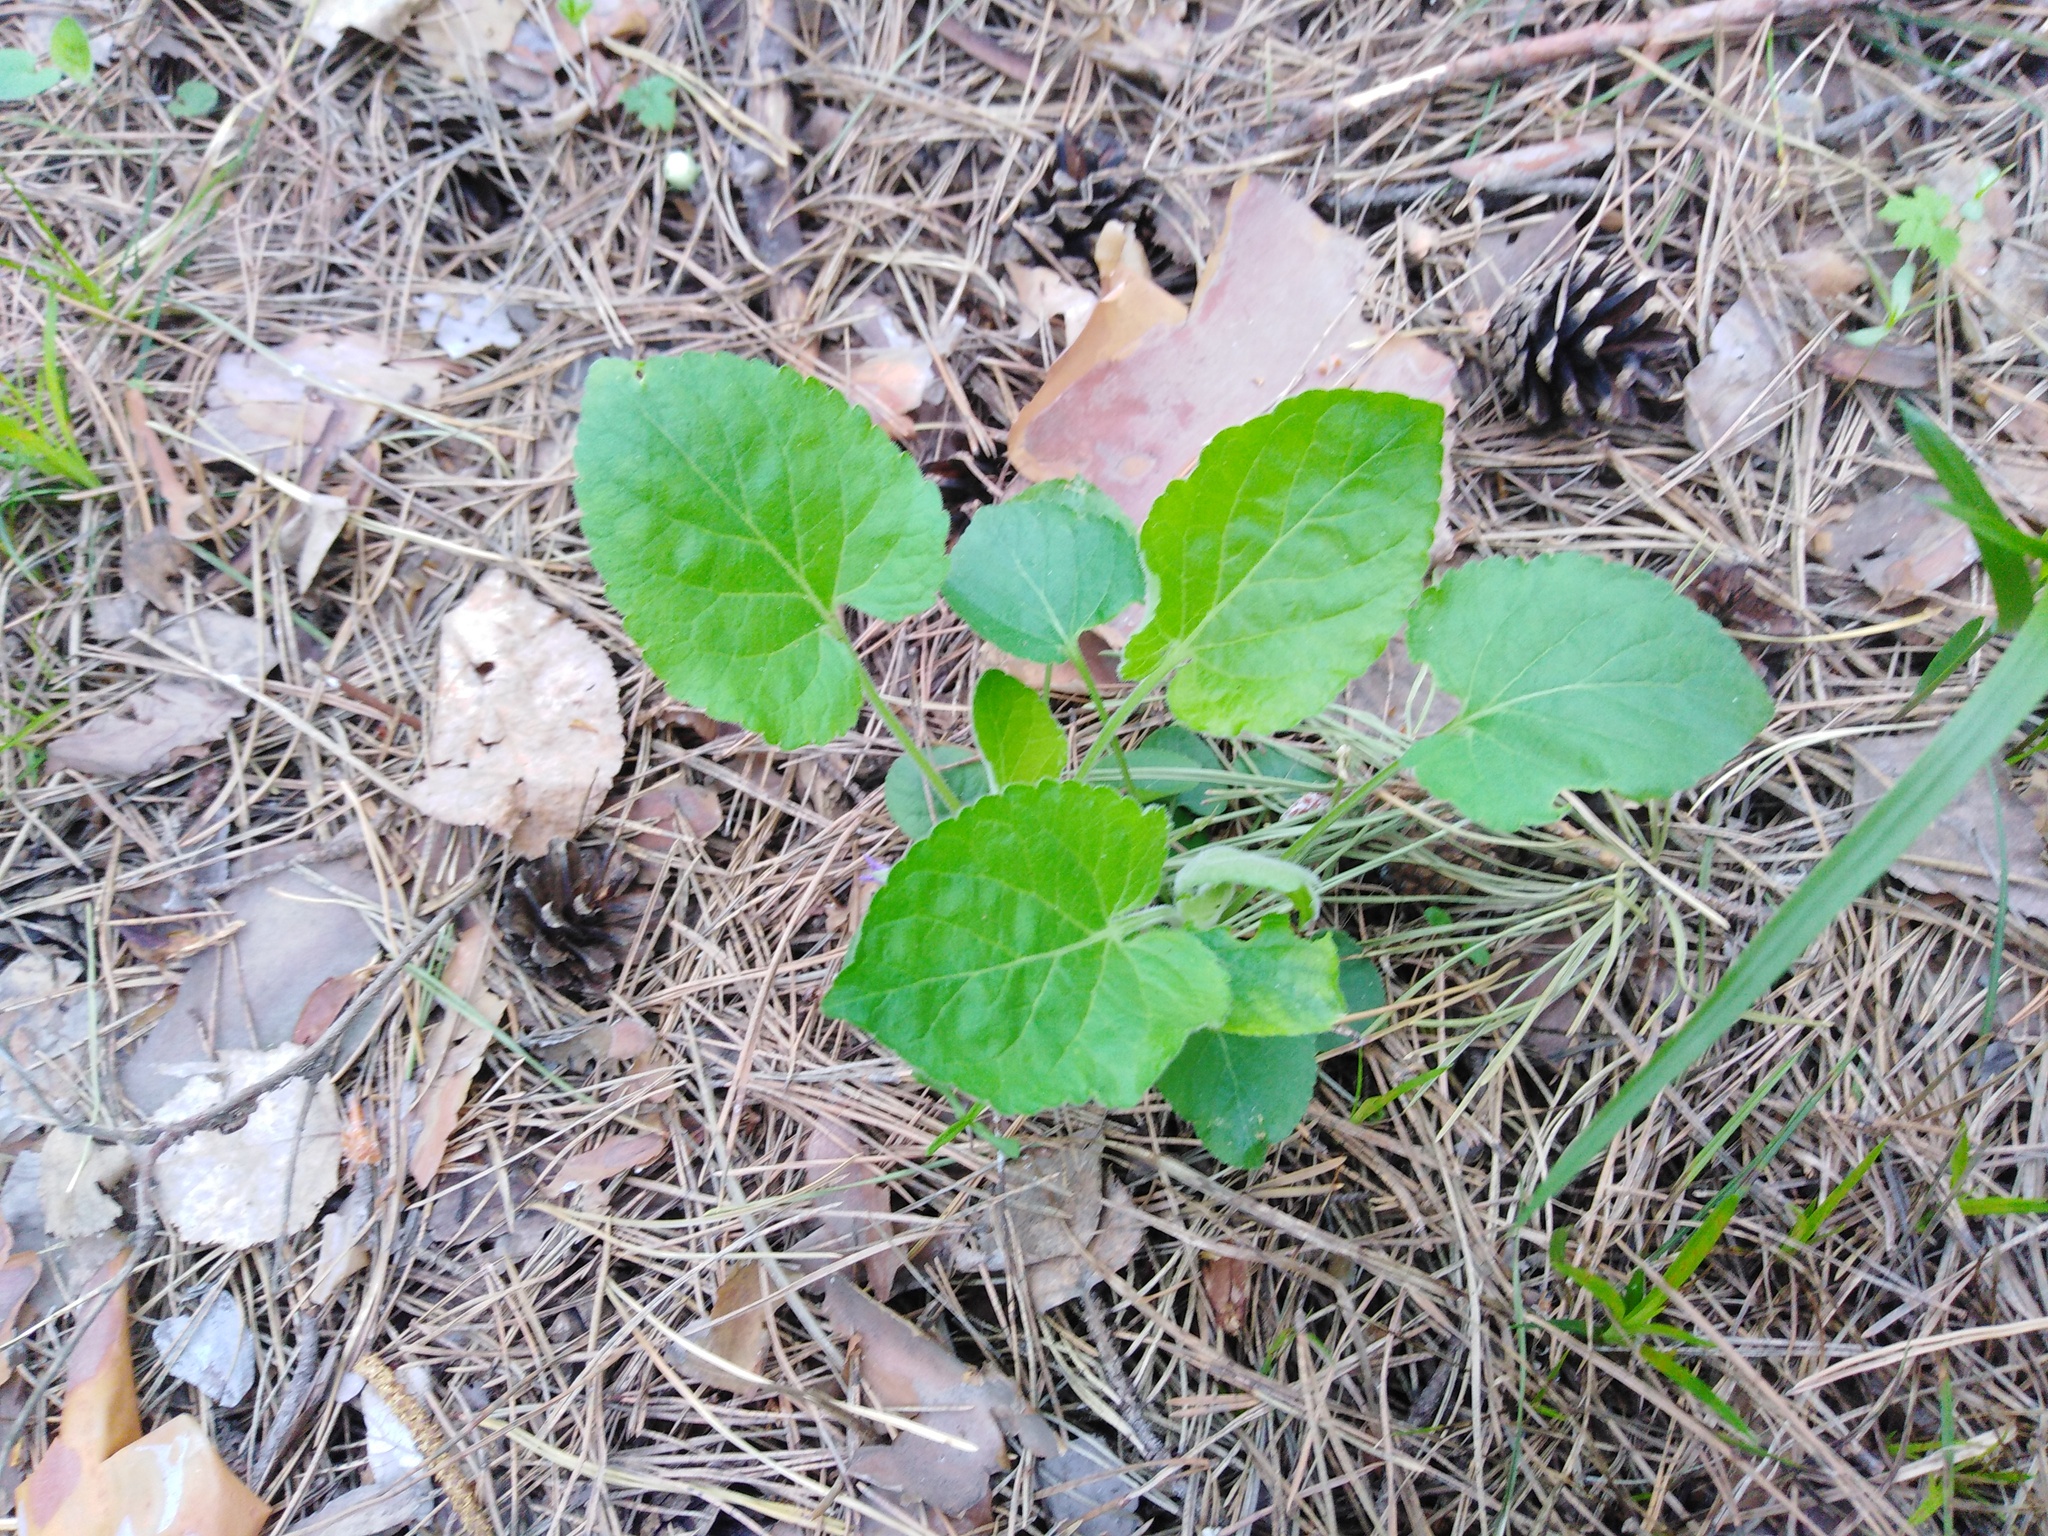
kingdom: Plantae
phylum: Tracheophyta
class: Magnoliopsida
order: Malpighiales
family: Violaceae
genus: Viola
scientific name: Viola collina
